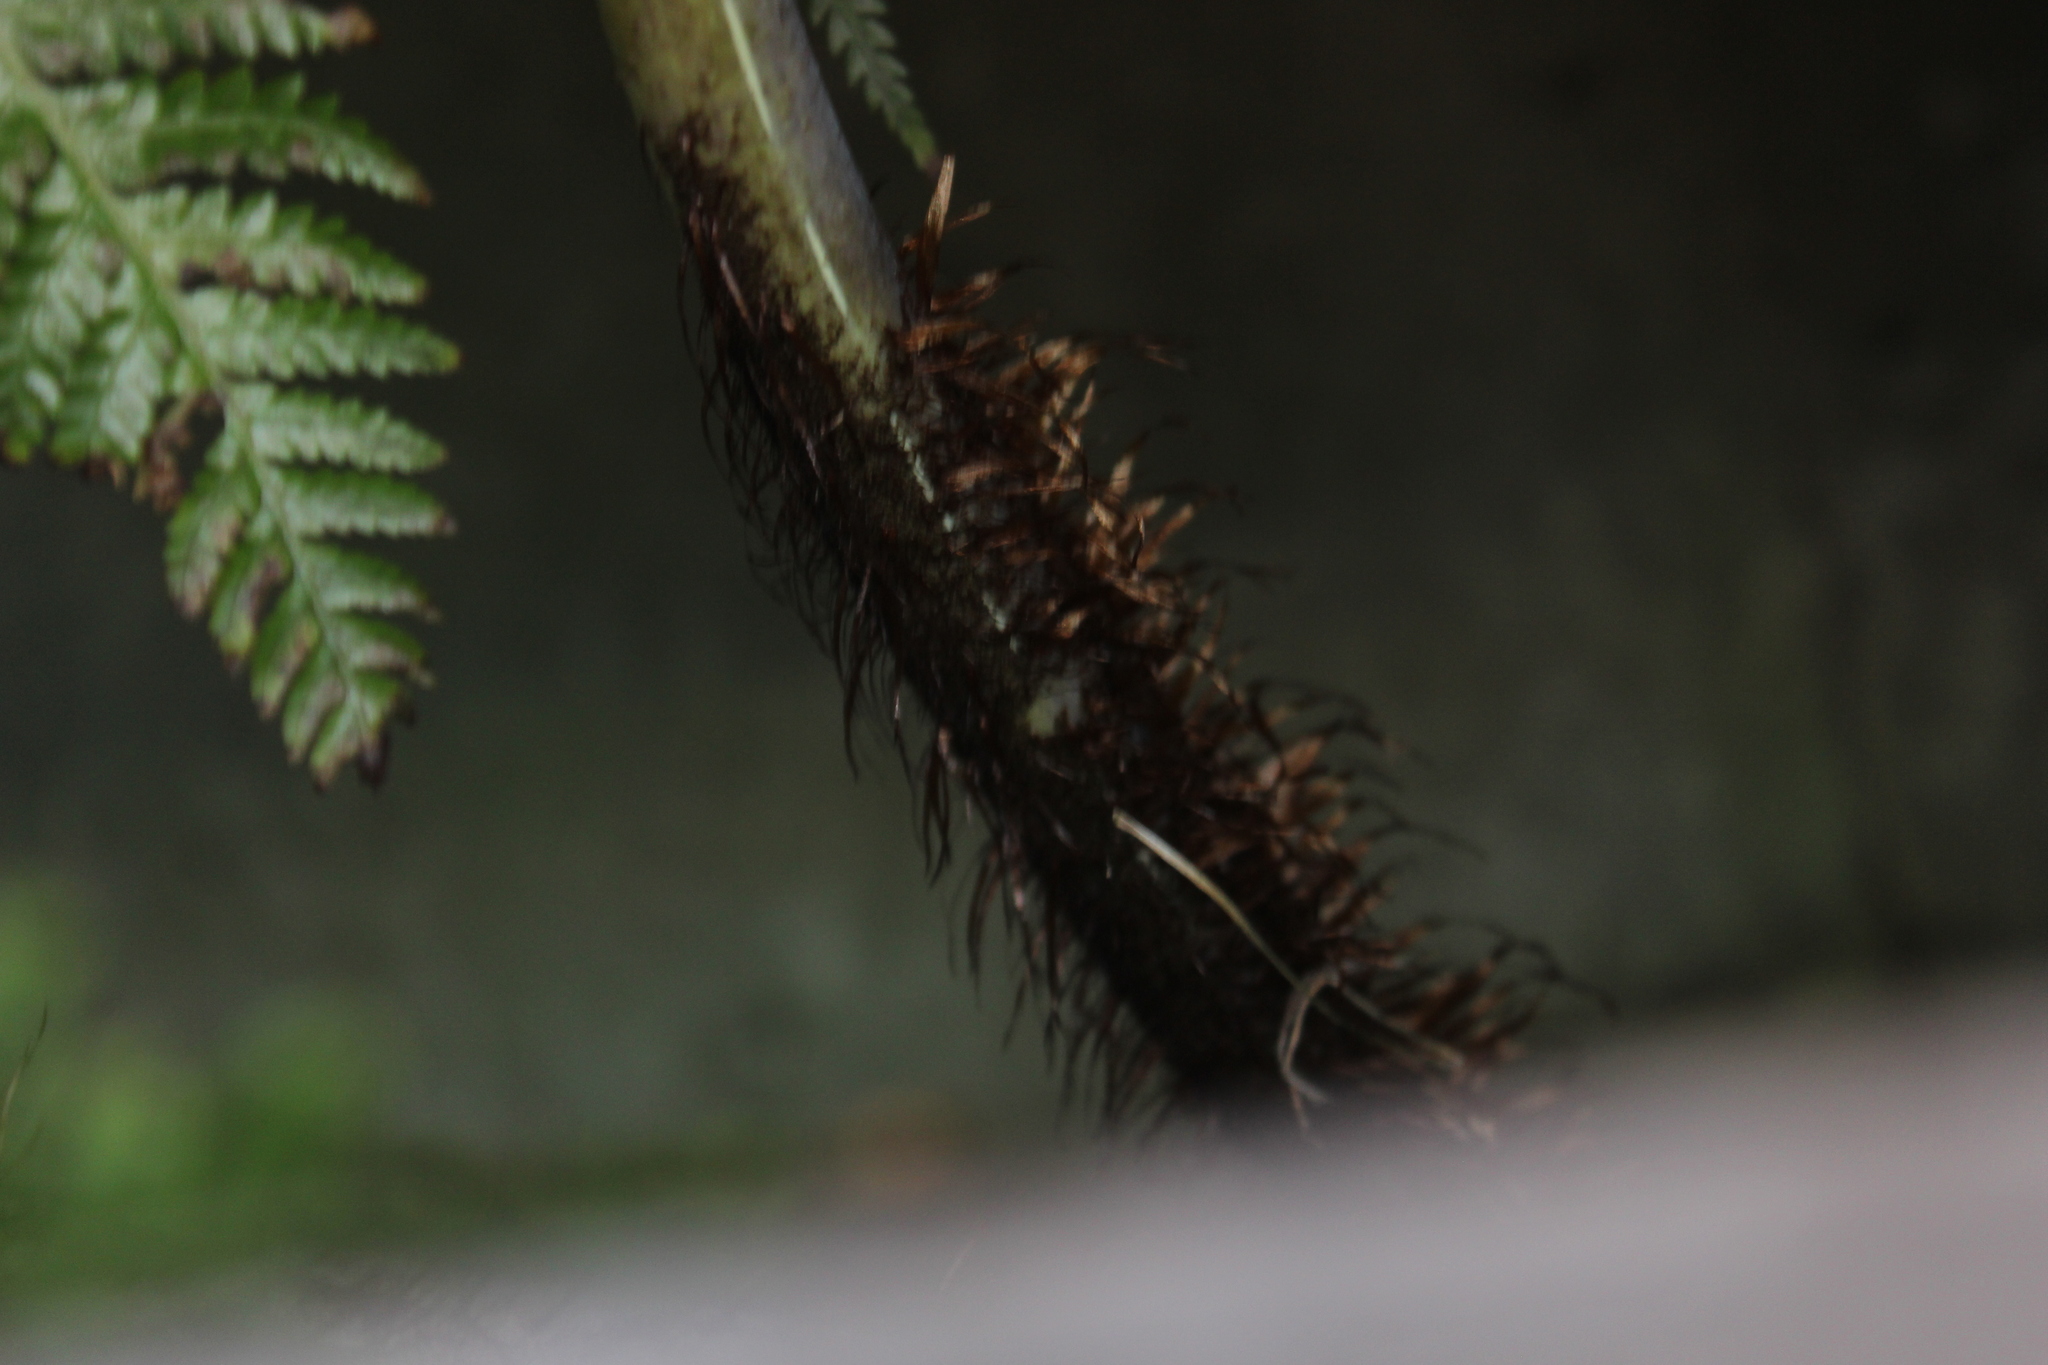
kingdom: Plantae
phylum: Tracheophyta
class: Polypodiopsida
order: Cyatheales
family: Cyatheaceae
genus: Sphaeropteris
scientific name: Sphaeropteris medullaris
